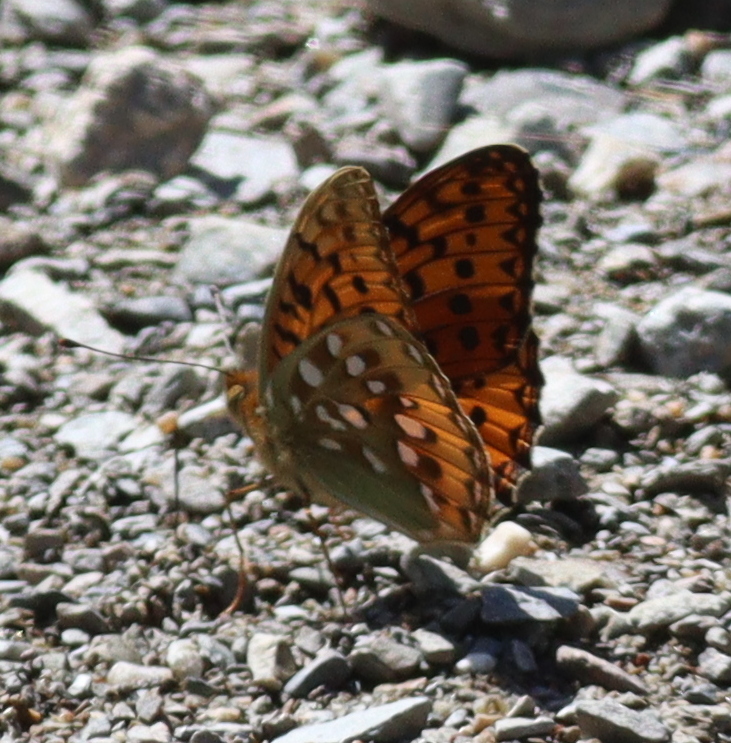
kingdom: Animalia
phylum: Arthropoda
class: Insecta
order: Lepidoptera
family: Nymphalidae
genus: Speyeria
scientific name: Speyeria aglaja
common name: Dark green fritillary
